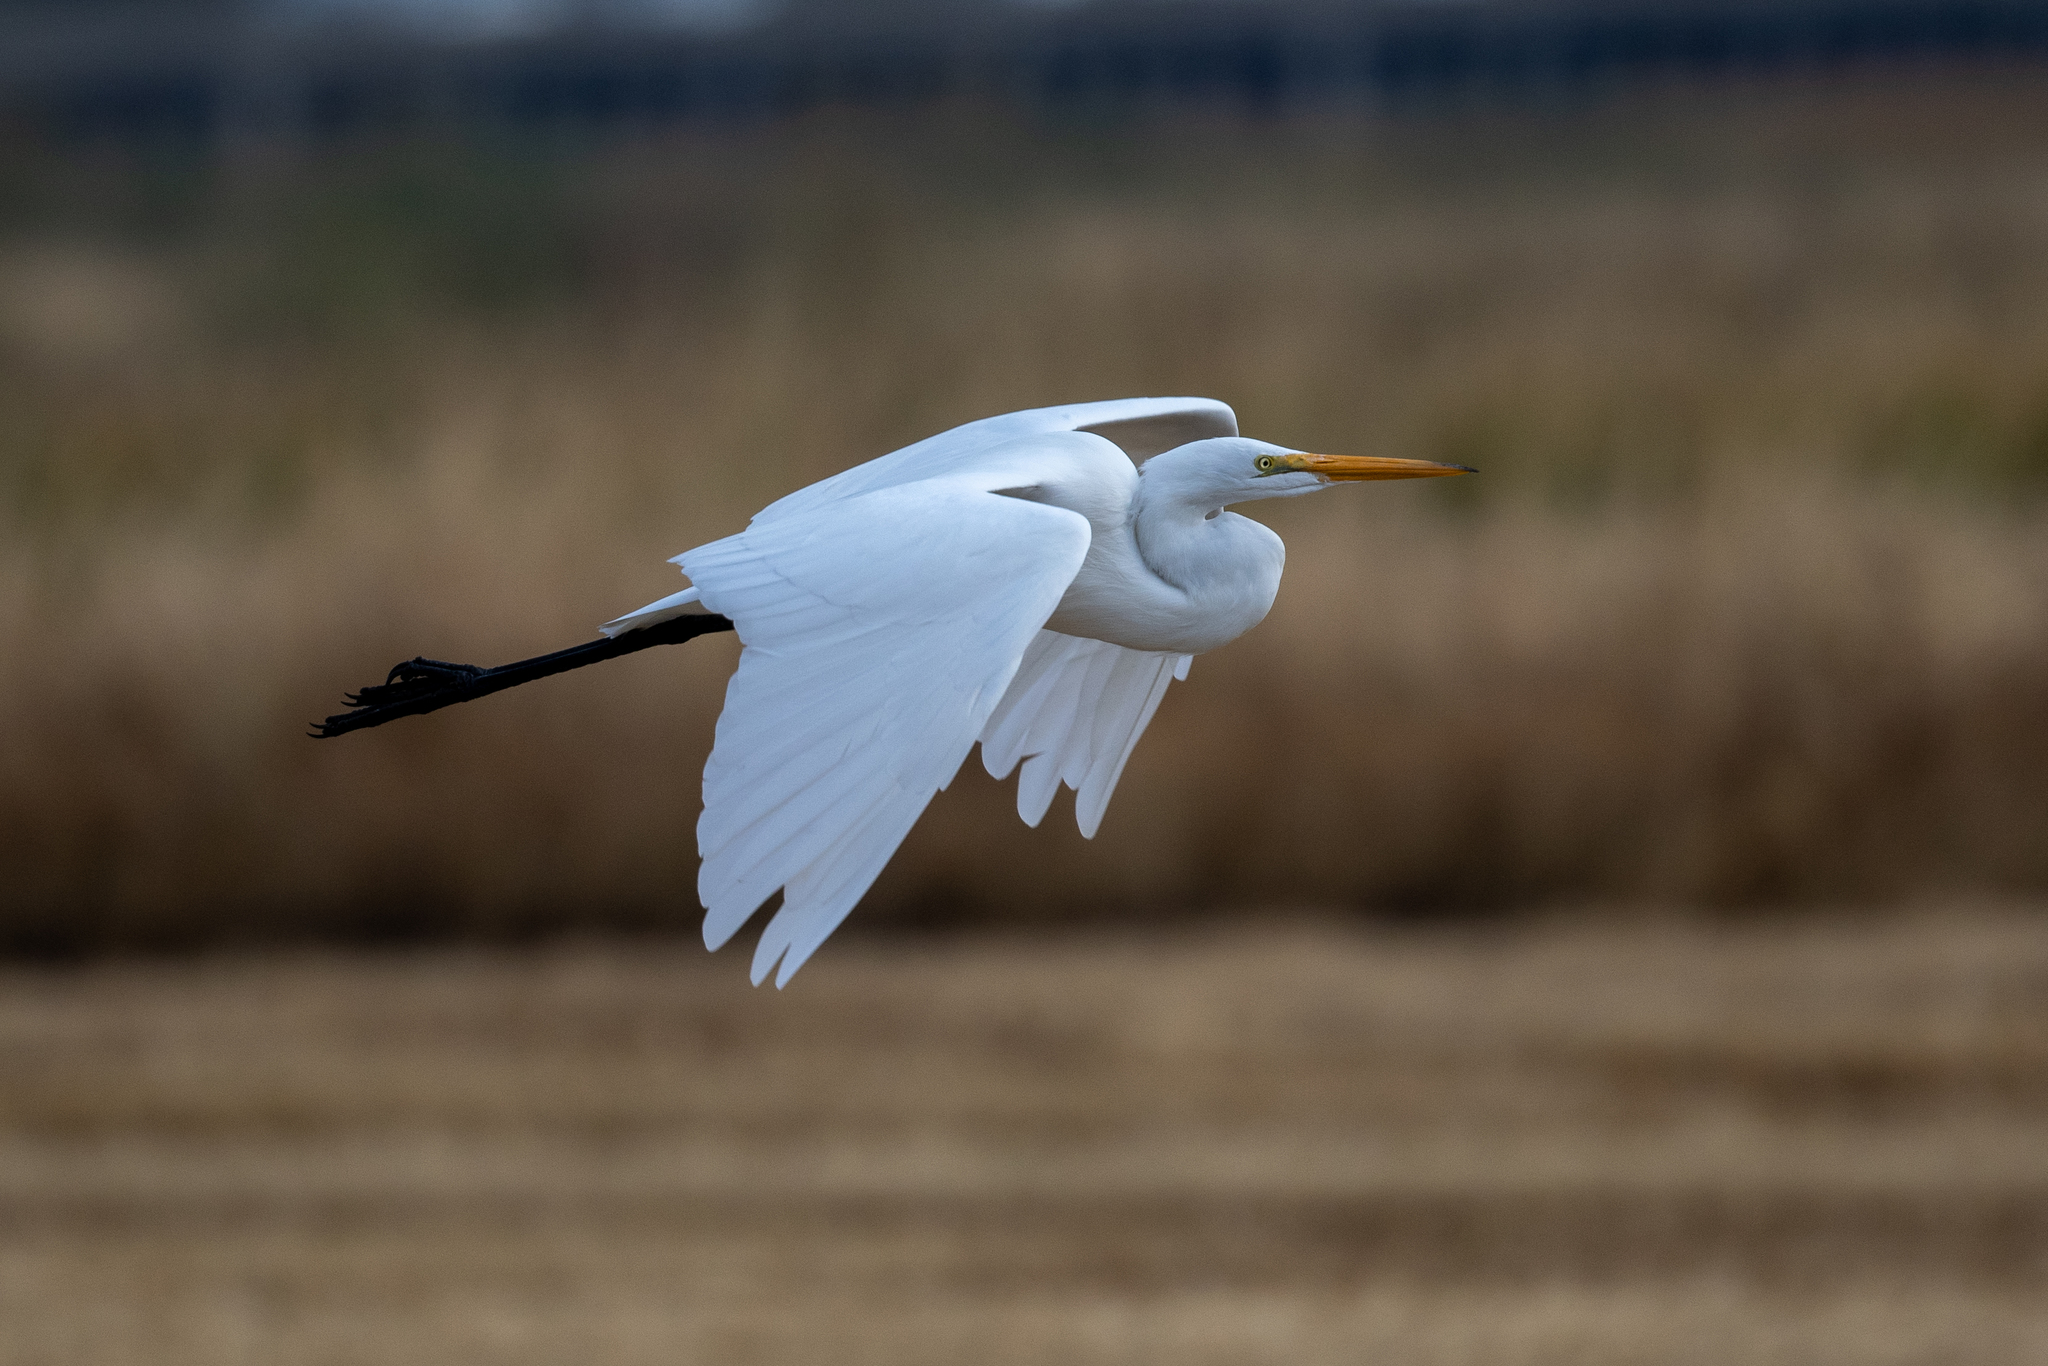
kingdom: Animalia
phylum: Chordata
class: Aves
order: Pelecaniformes
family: Ardeidae
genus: Ardea
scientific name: Ardea alba
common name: Great egret
